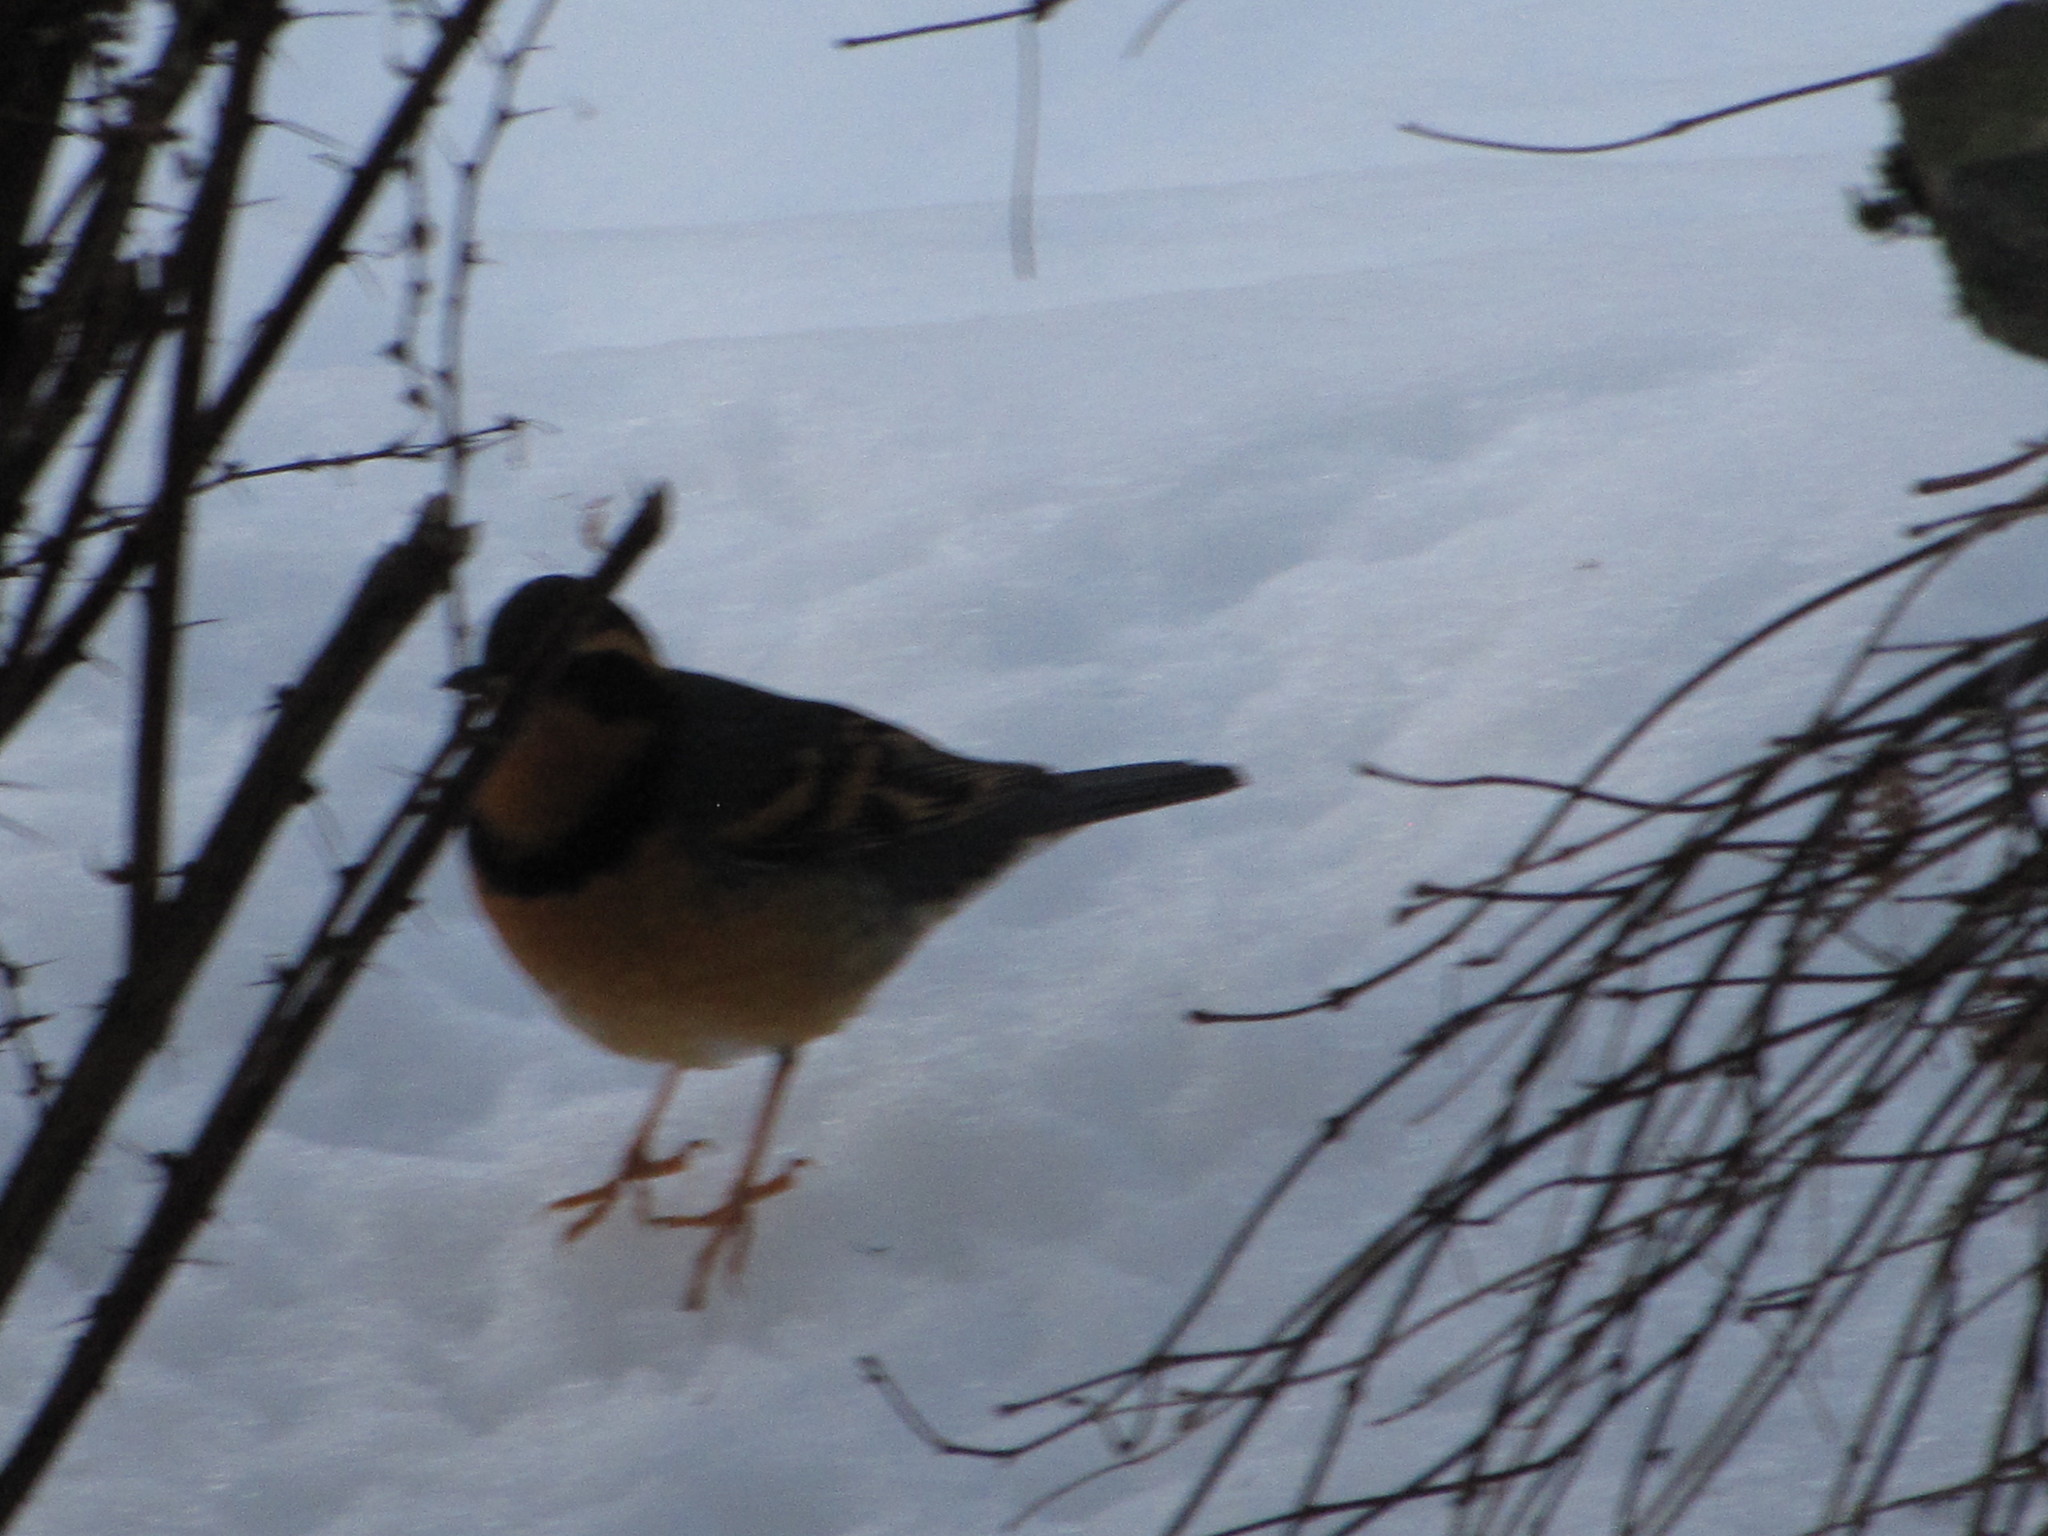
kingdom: Animalia
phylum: Chordata
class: Aves
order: Passeriformes
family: Turdidae
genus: Ixoreus
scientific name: Ixoreus naevius
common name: Varied thrush
